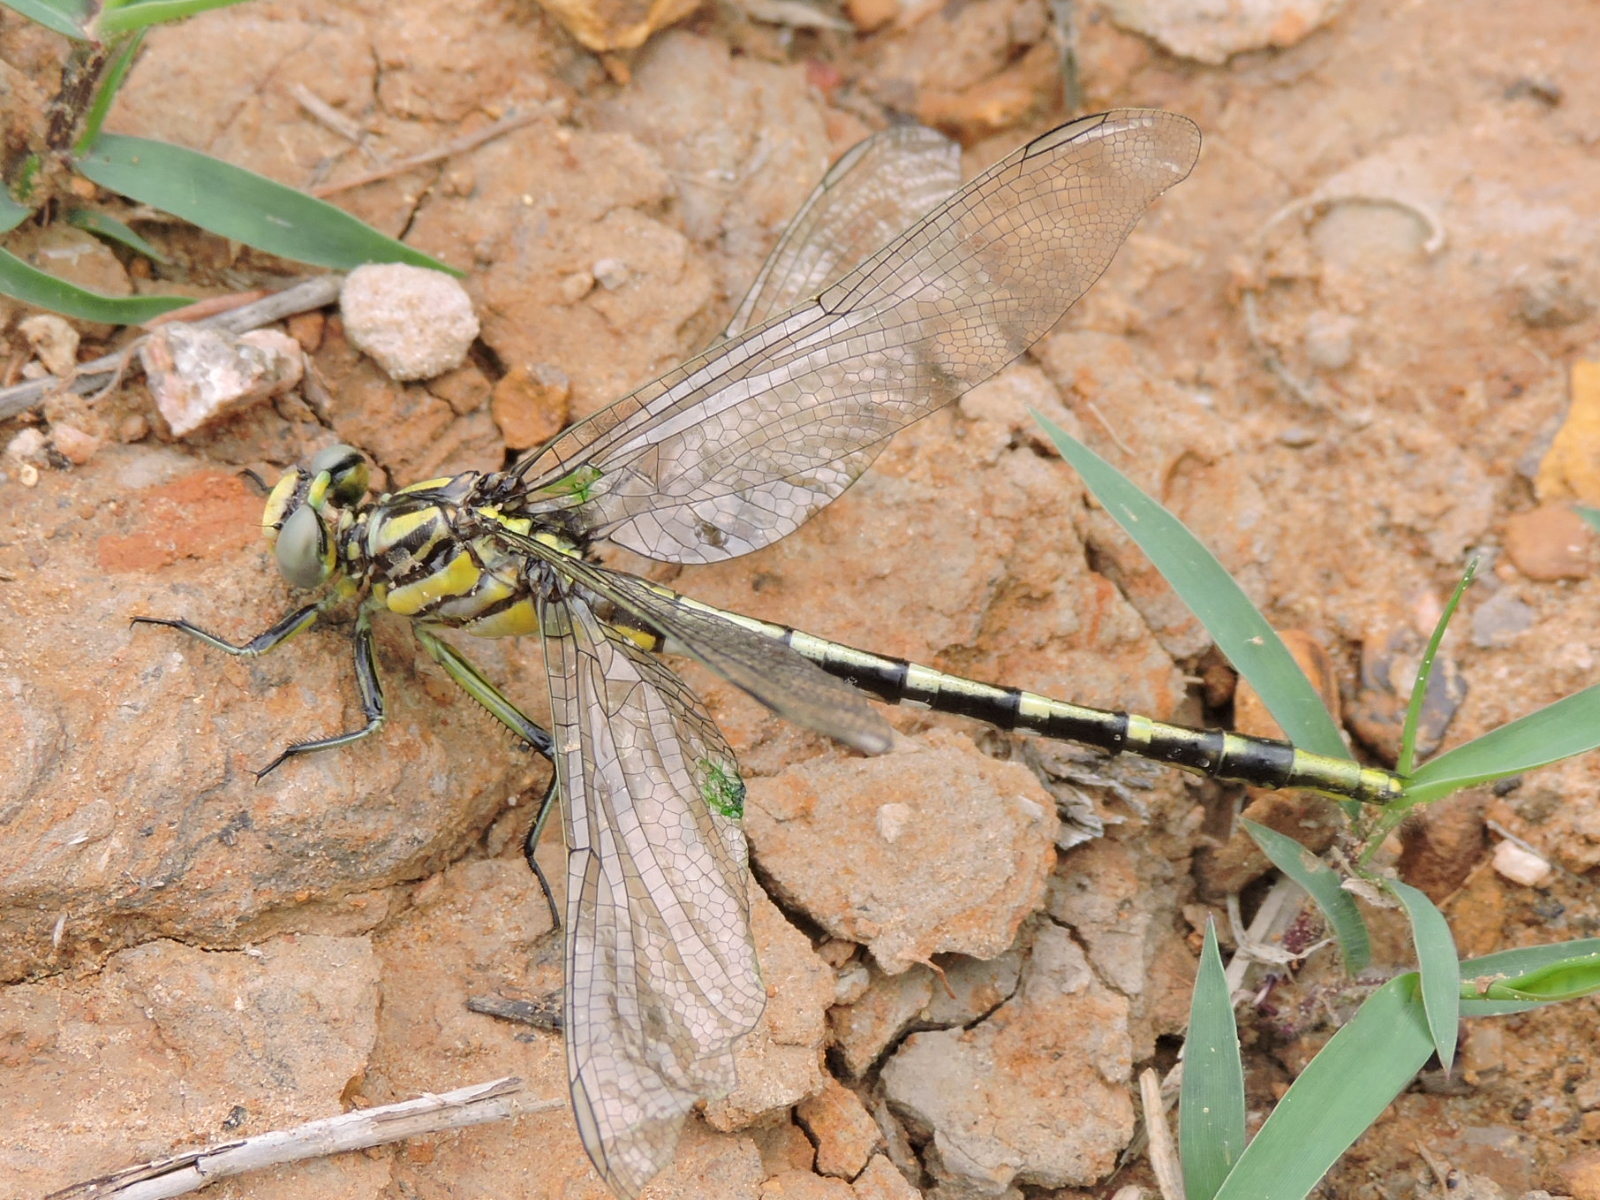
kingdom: Animalia
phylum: Arthropoda
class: Insecta
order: Odonata
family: Gomphidae
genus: Phanogomphus
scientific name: Phanogomphus militaris
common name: Sulphur-tipped clubtail
